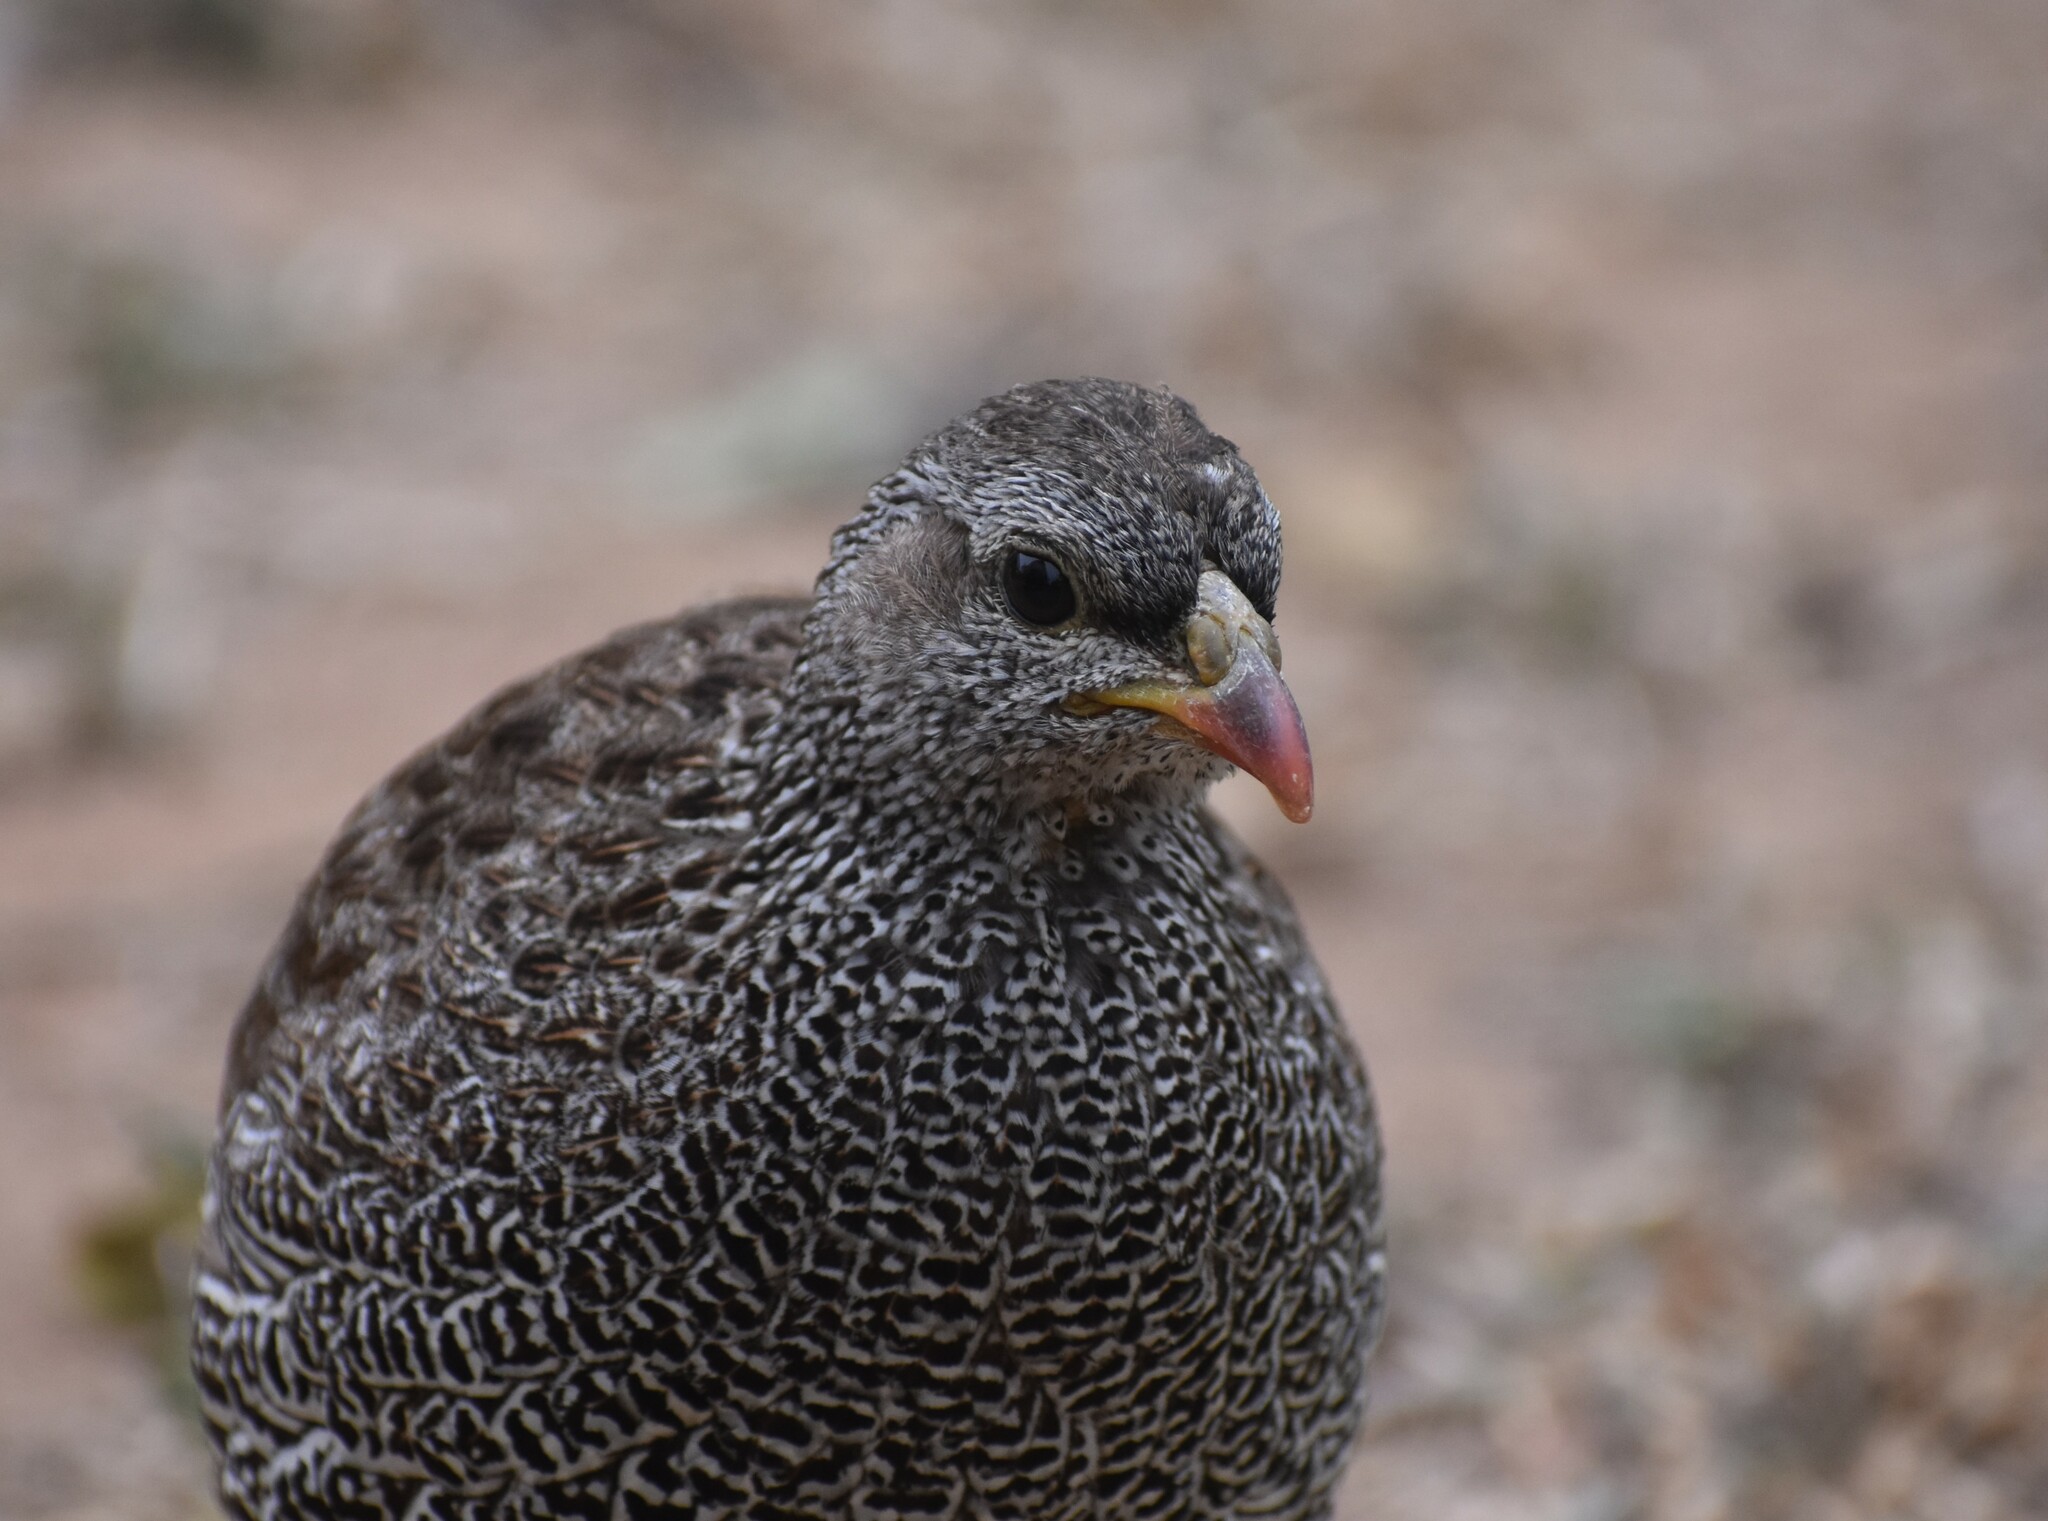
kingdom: Animalia
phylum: Chordata
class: Aves
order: Galliformes
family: Phasianidae
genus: Pternistis
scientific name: Pternistis natalensis
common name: Natal spurfowl
